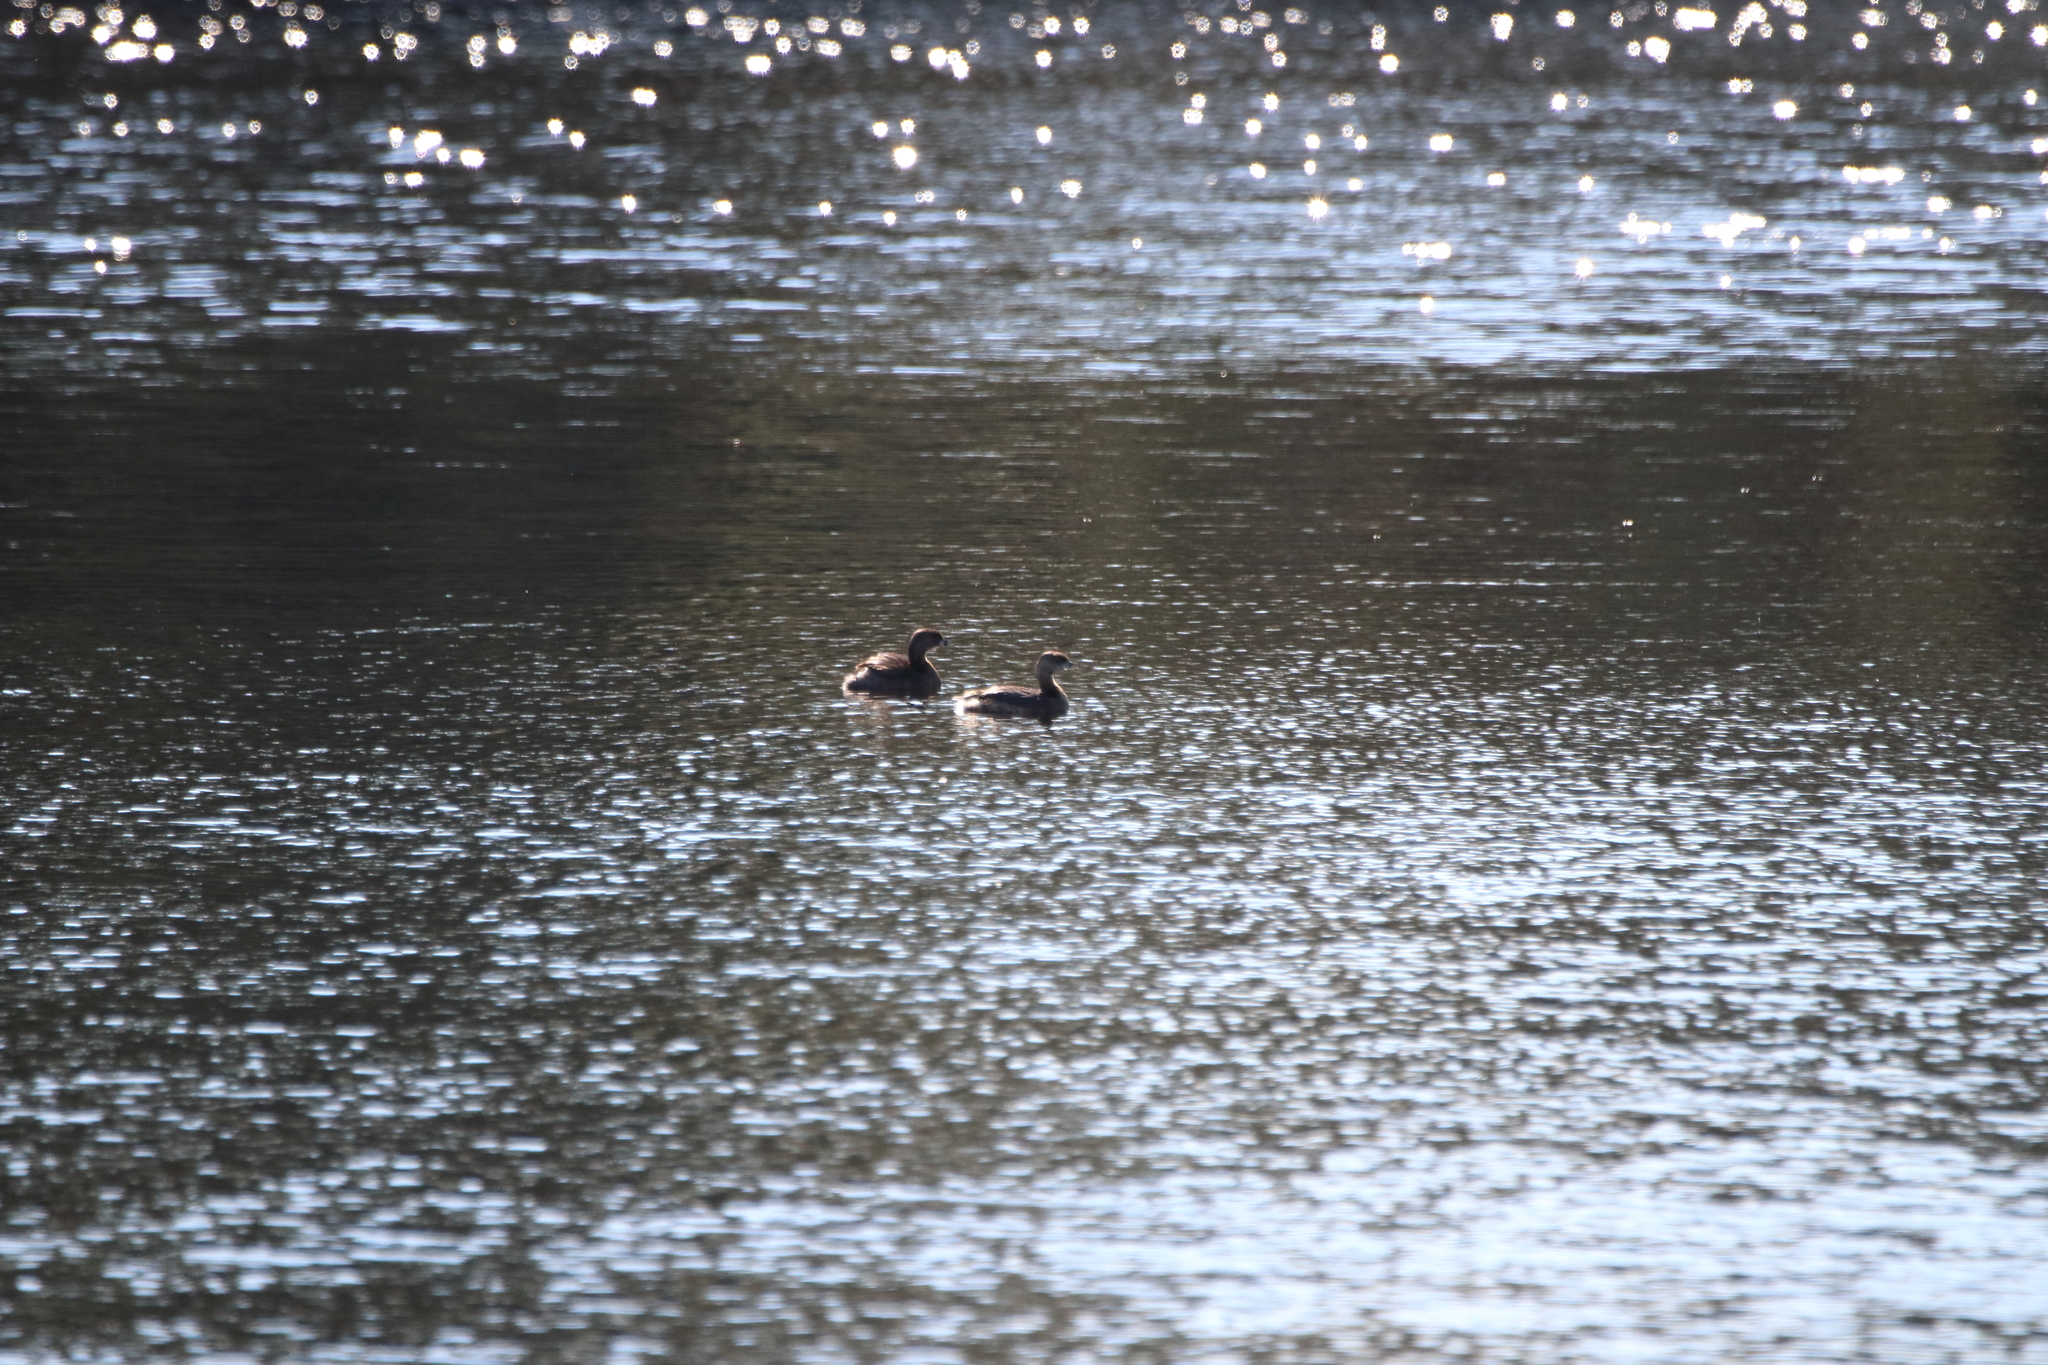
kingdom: Animalia
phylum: Chordata
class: Aves
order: Podicipediformes
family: Podicipedidae
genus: Podilymbus
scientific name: Podilymbus podiceps
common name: Pied-billed grebe
